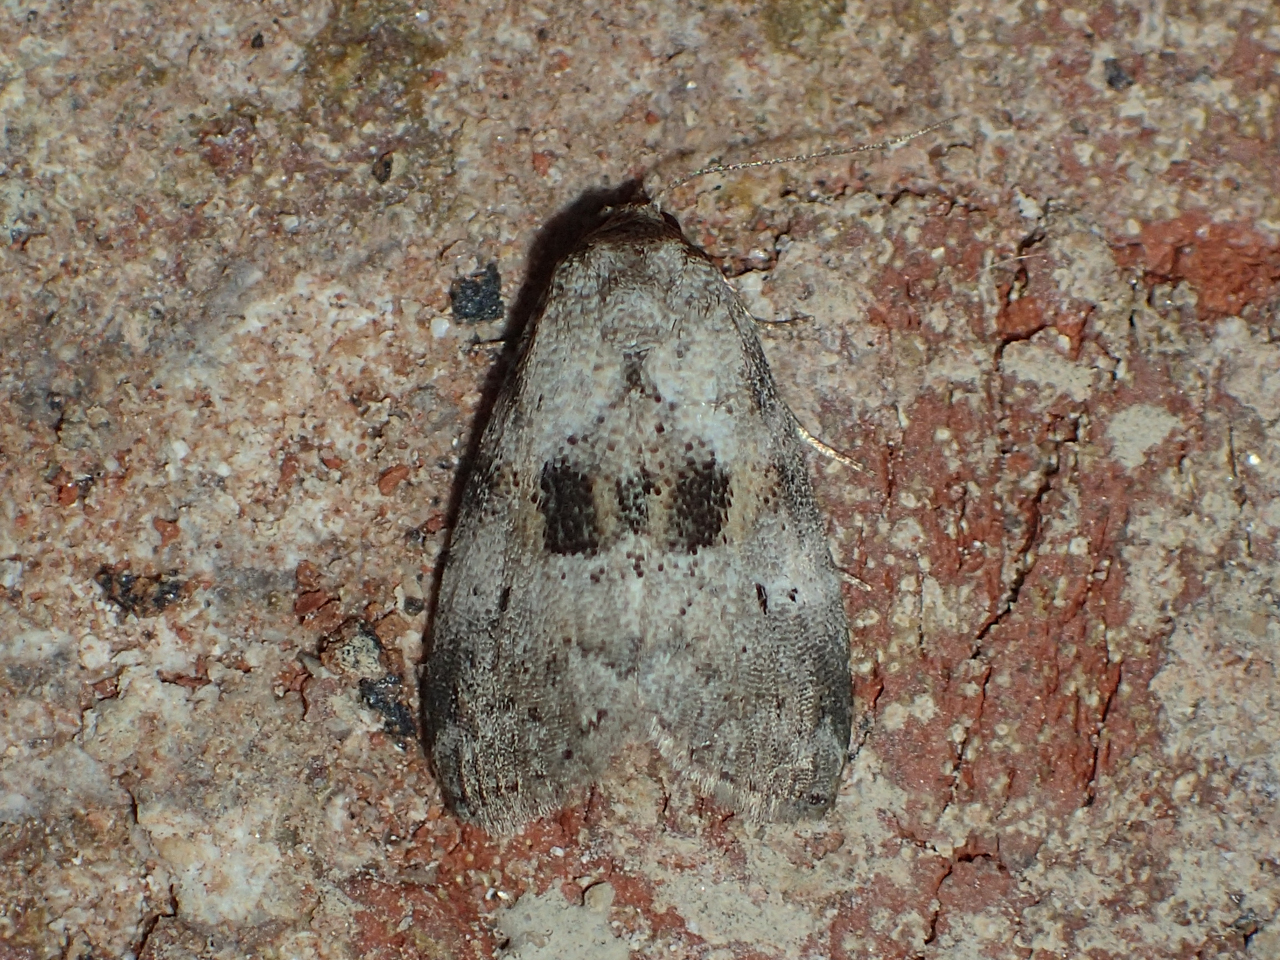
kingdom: Animalia
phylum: Arthropoda
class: Insecta
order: Lepidoptera
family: Erebidae
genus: Hyperstrotia
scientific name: Hyperstrotia secta
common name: Black-patched graylet
